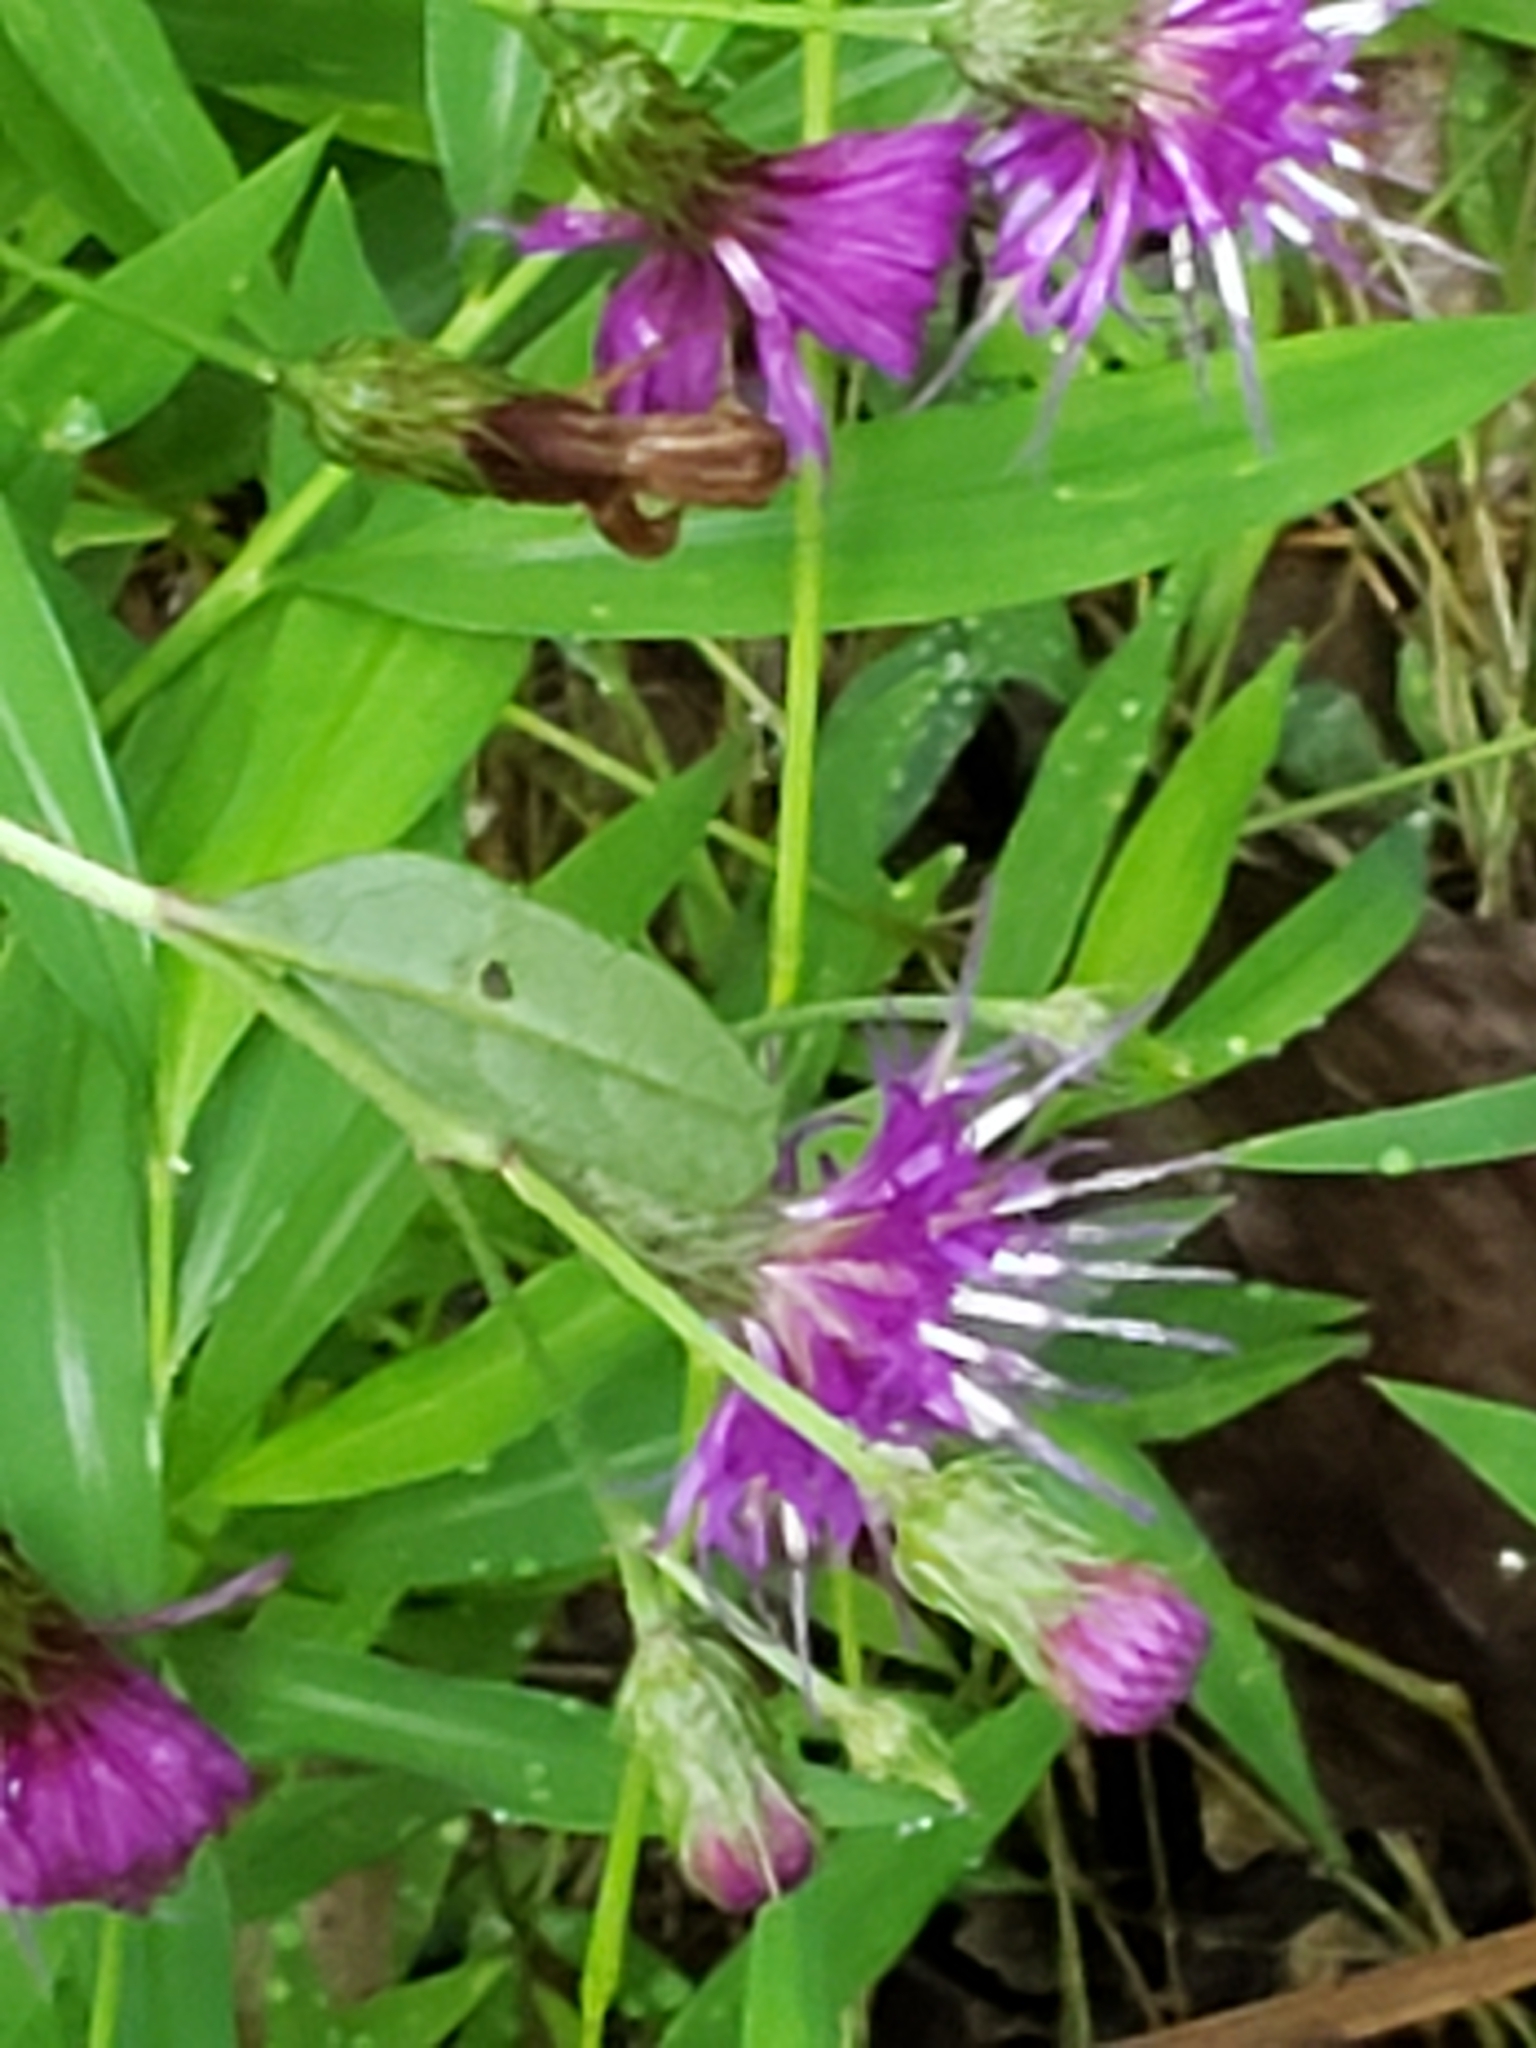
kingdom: Plantae
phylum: Tracheophyta
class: Magnoliopsida
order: Asterales
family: Asteraceae
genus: Vernonia
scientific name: Vernonia noveboracensis
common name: New york ironweed
